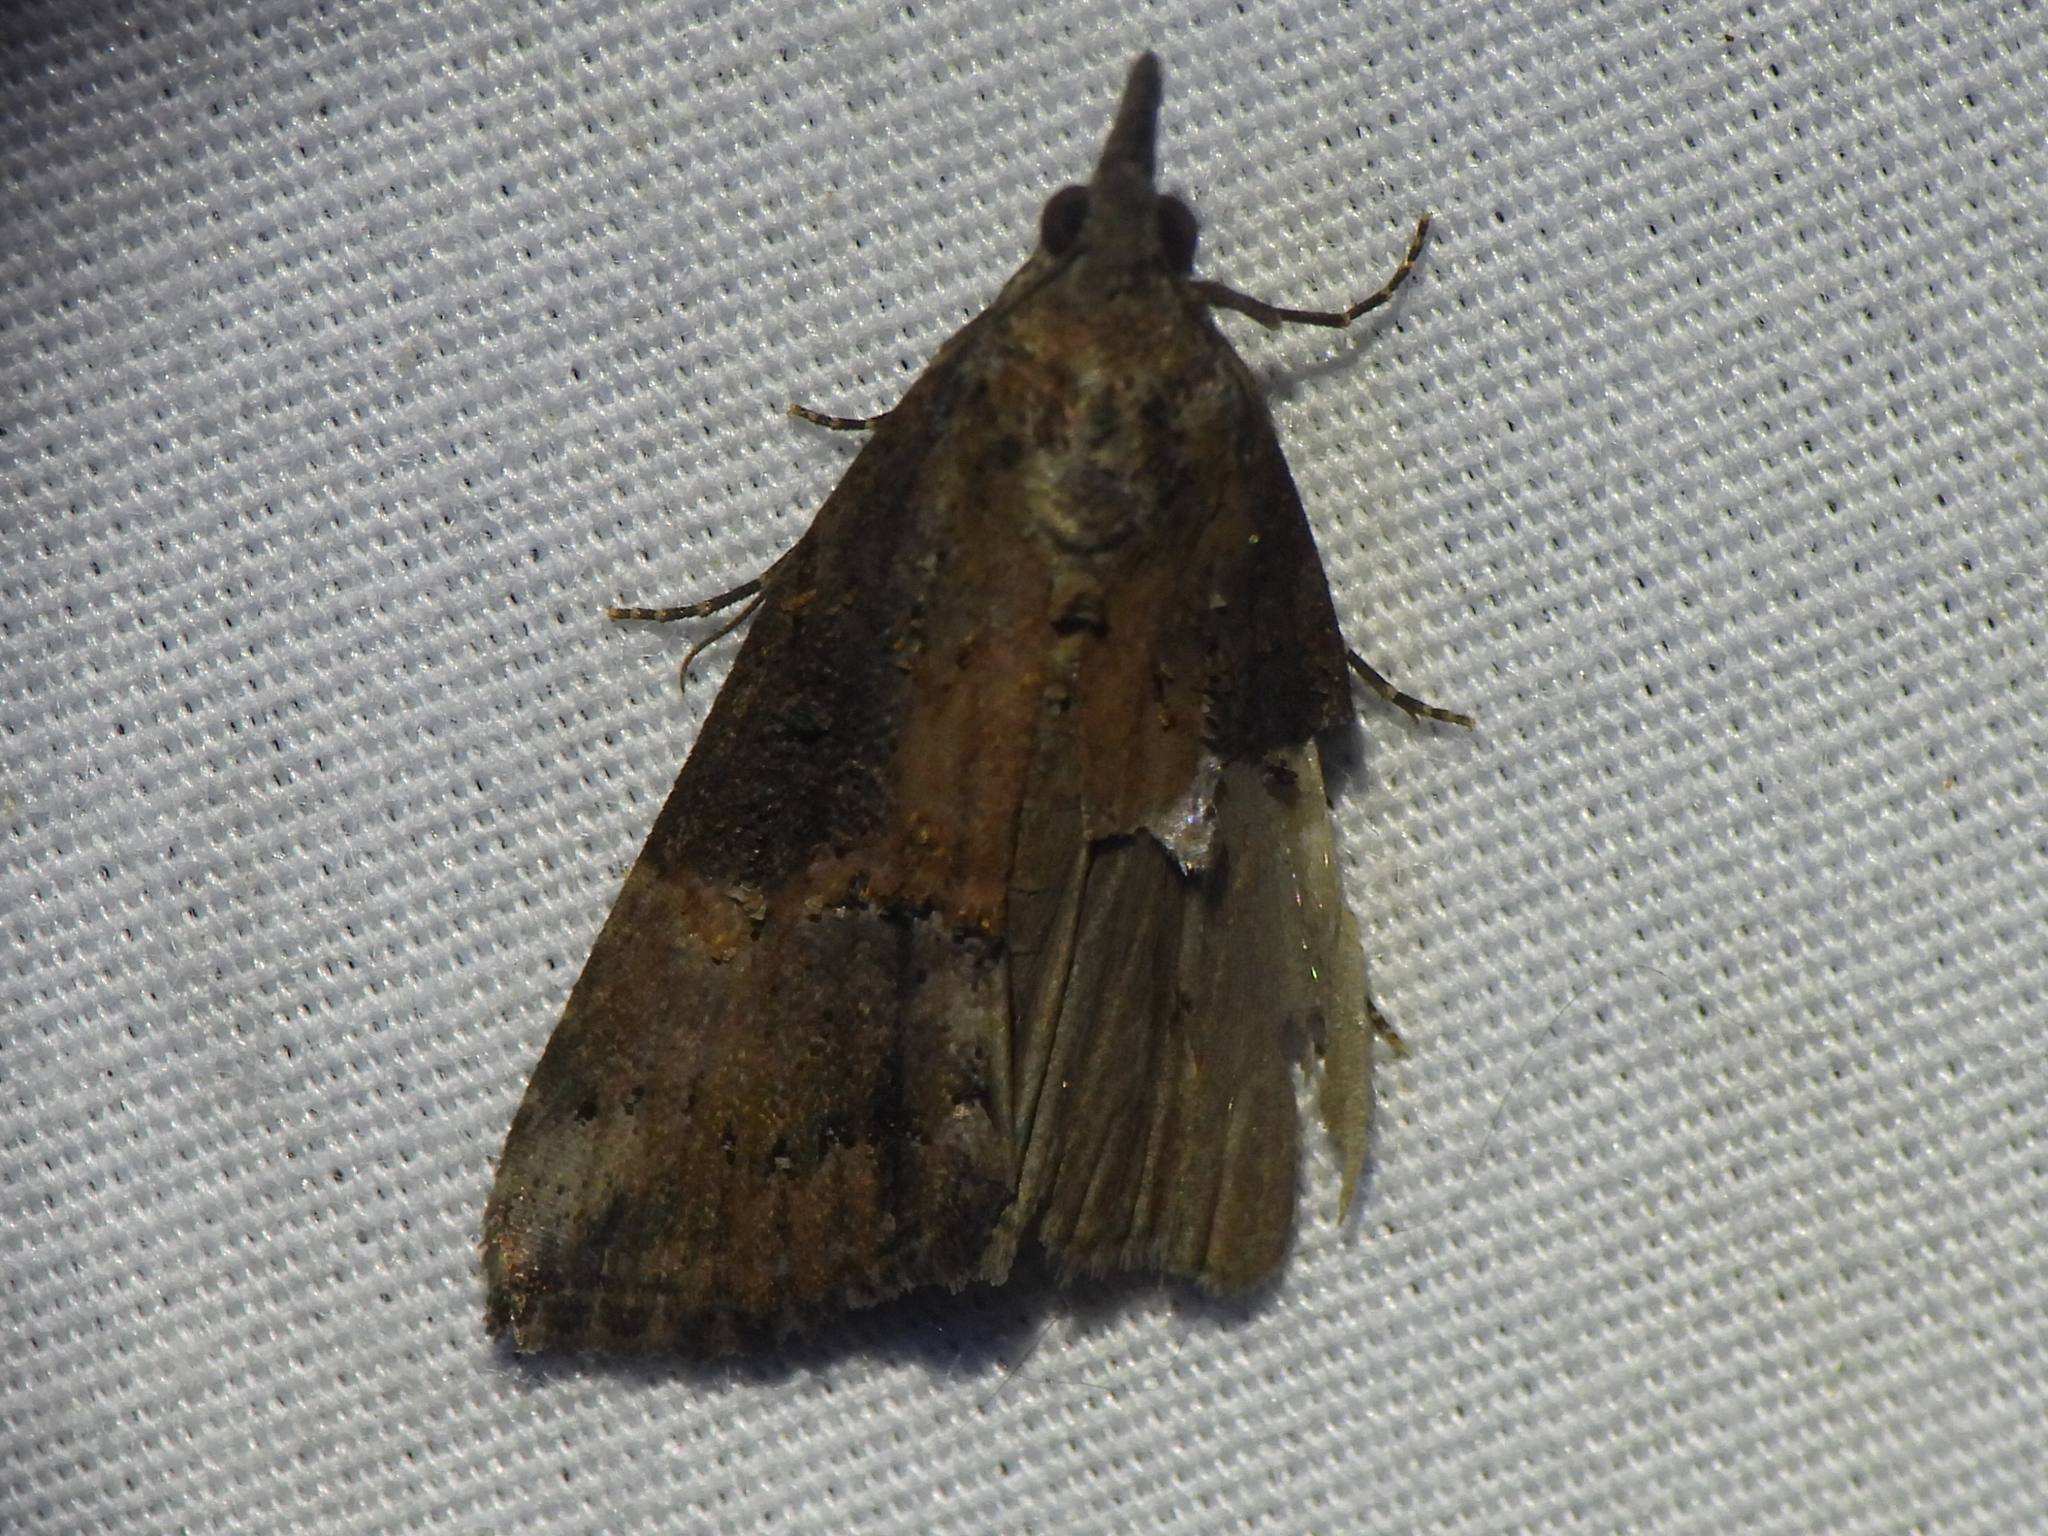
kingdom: Animalia
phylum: Arthropoda
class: Insecta
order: Lepidoptera
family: Erebidae
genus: Hypena
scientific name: Hypena scabra
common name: Green cloverworm
